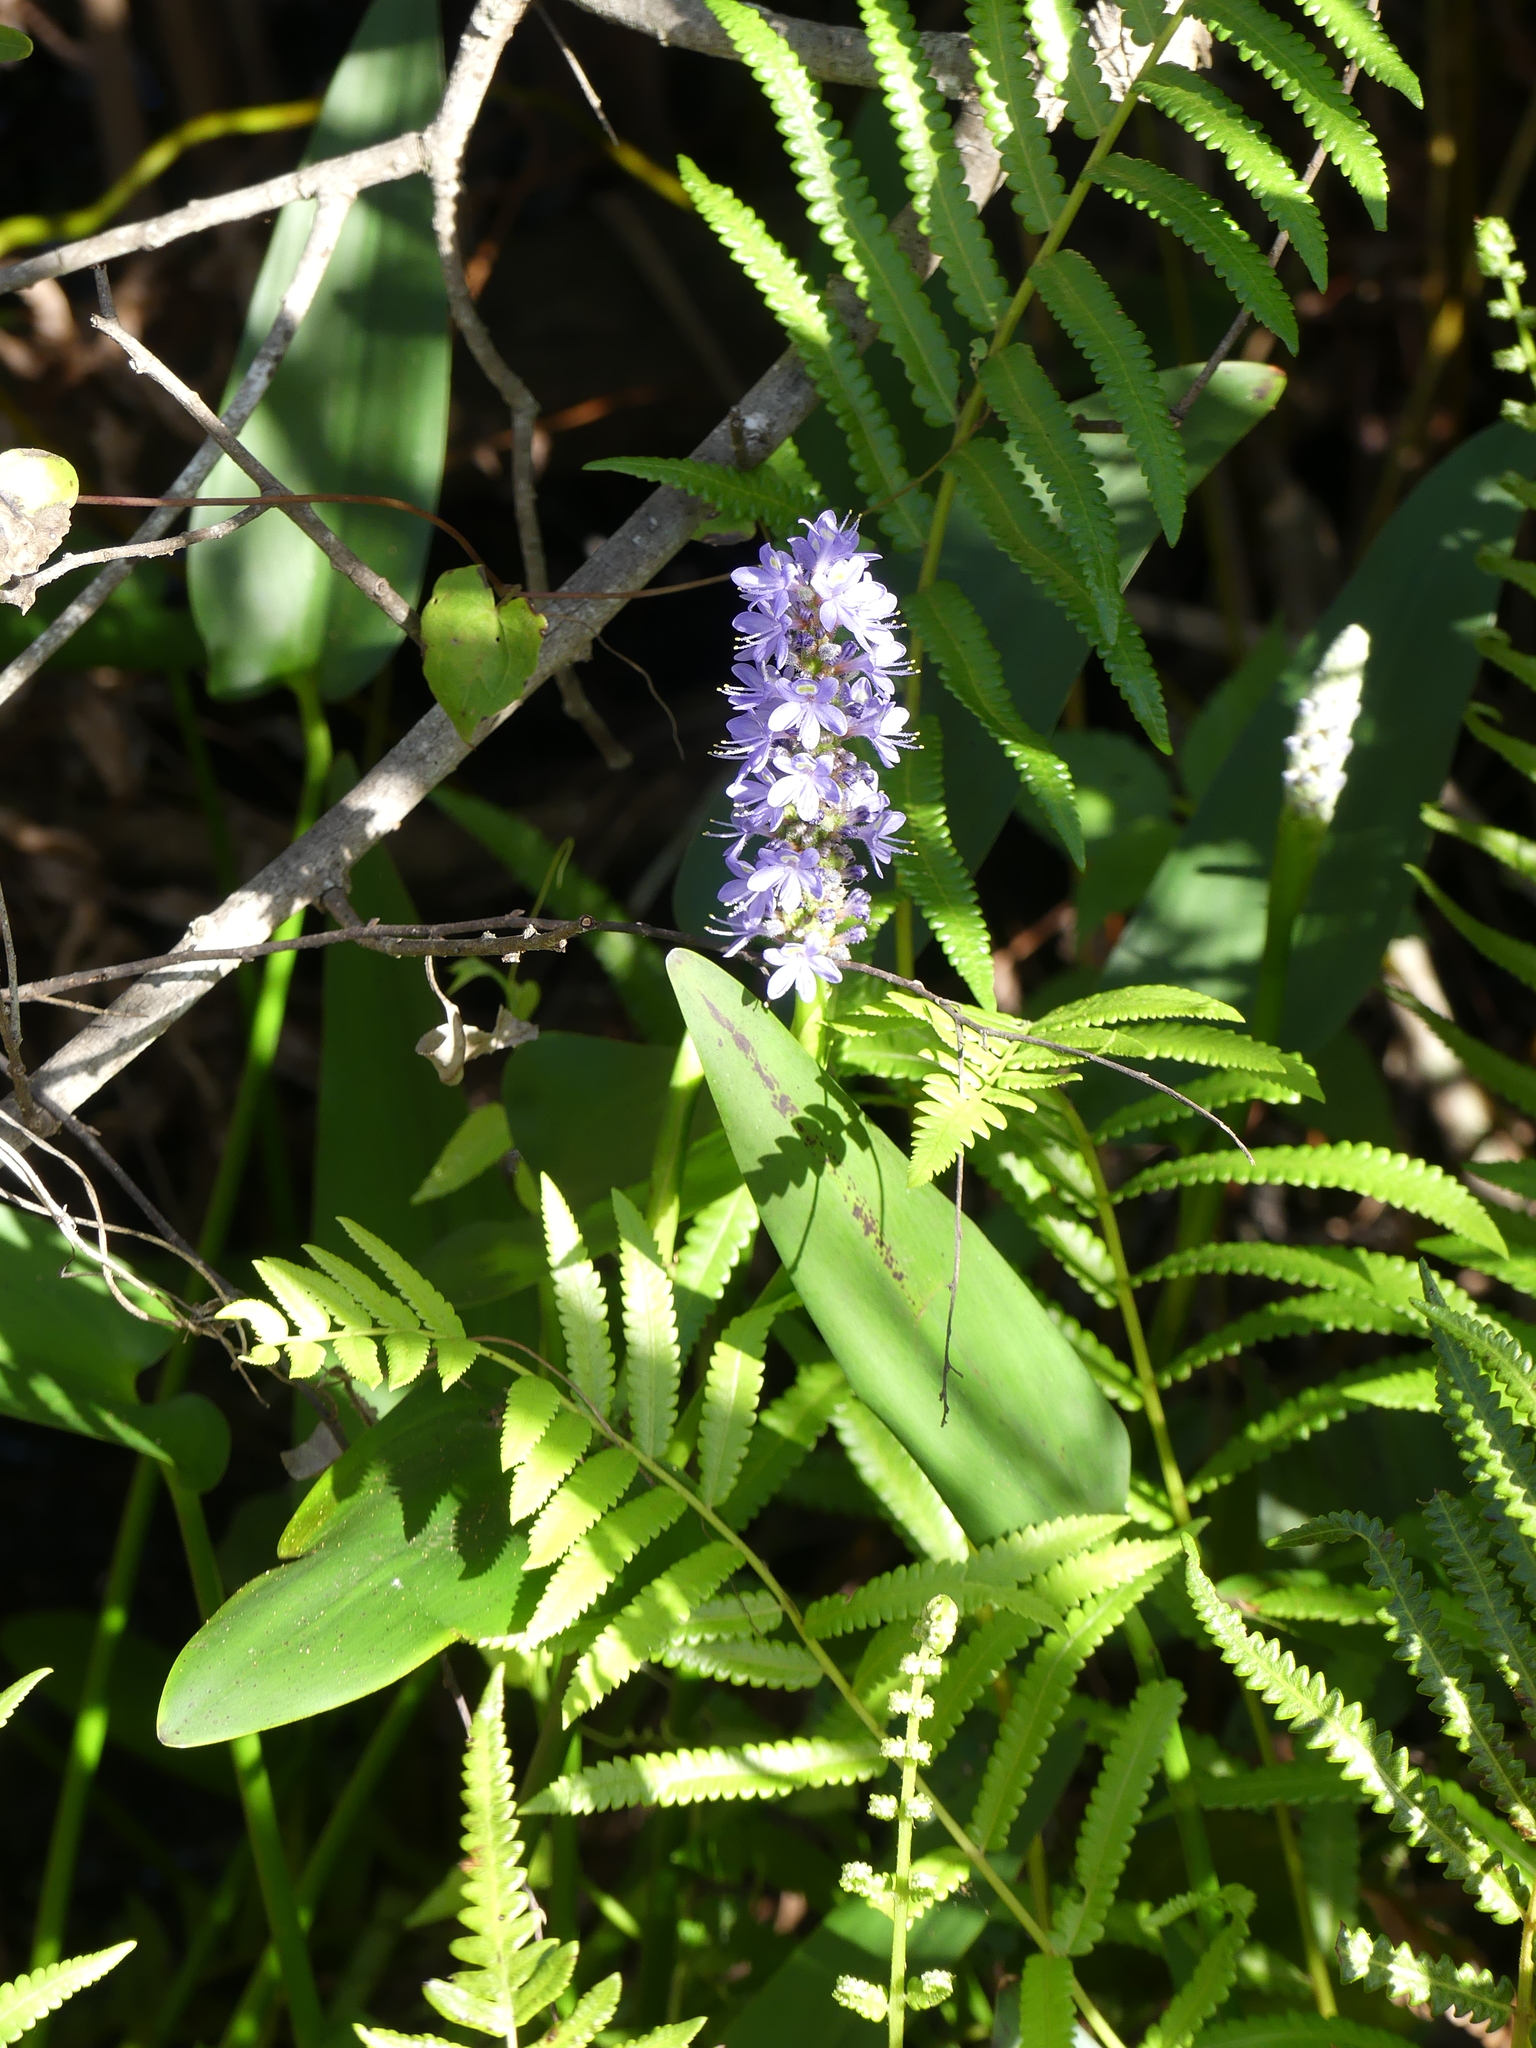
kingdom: Plantae
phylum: Tracheophyta
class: Liliopsida
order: Commelinales
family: Pontederiaceae
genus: Pontederia
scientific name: Pontederia cordata
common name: Pickerelweed
